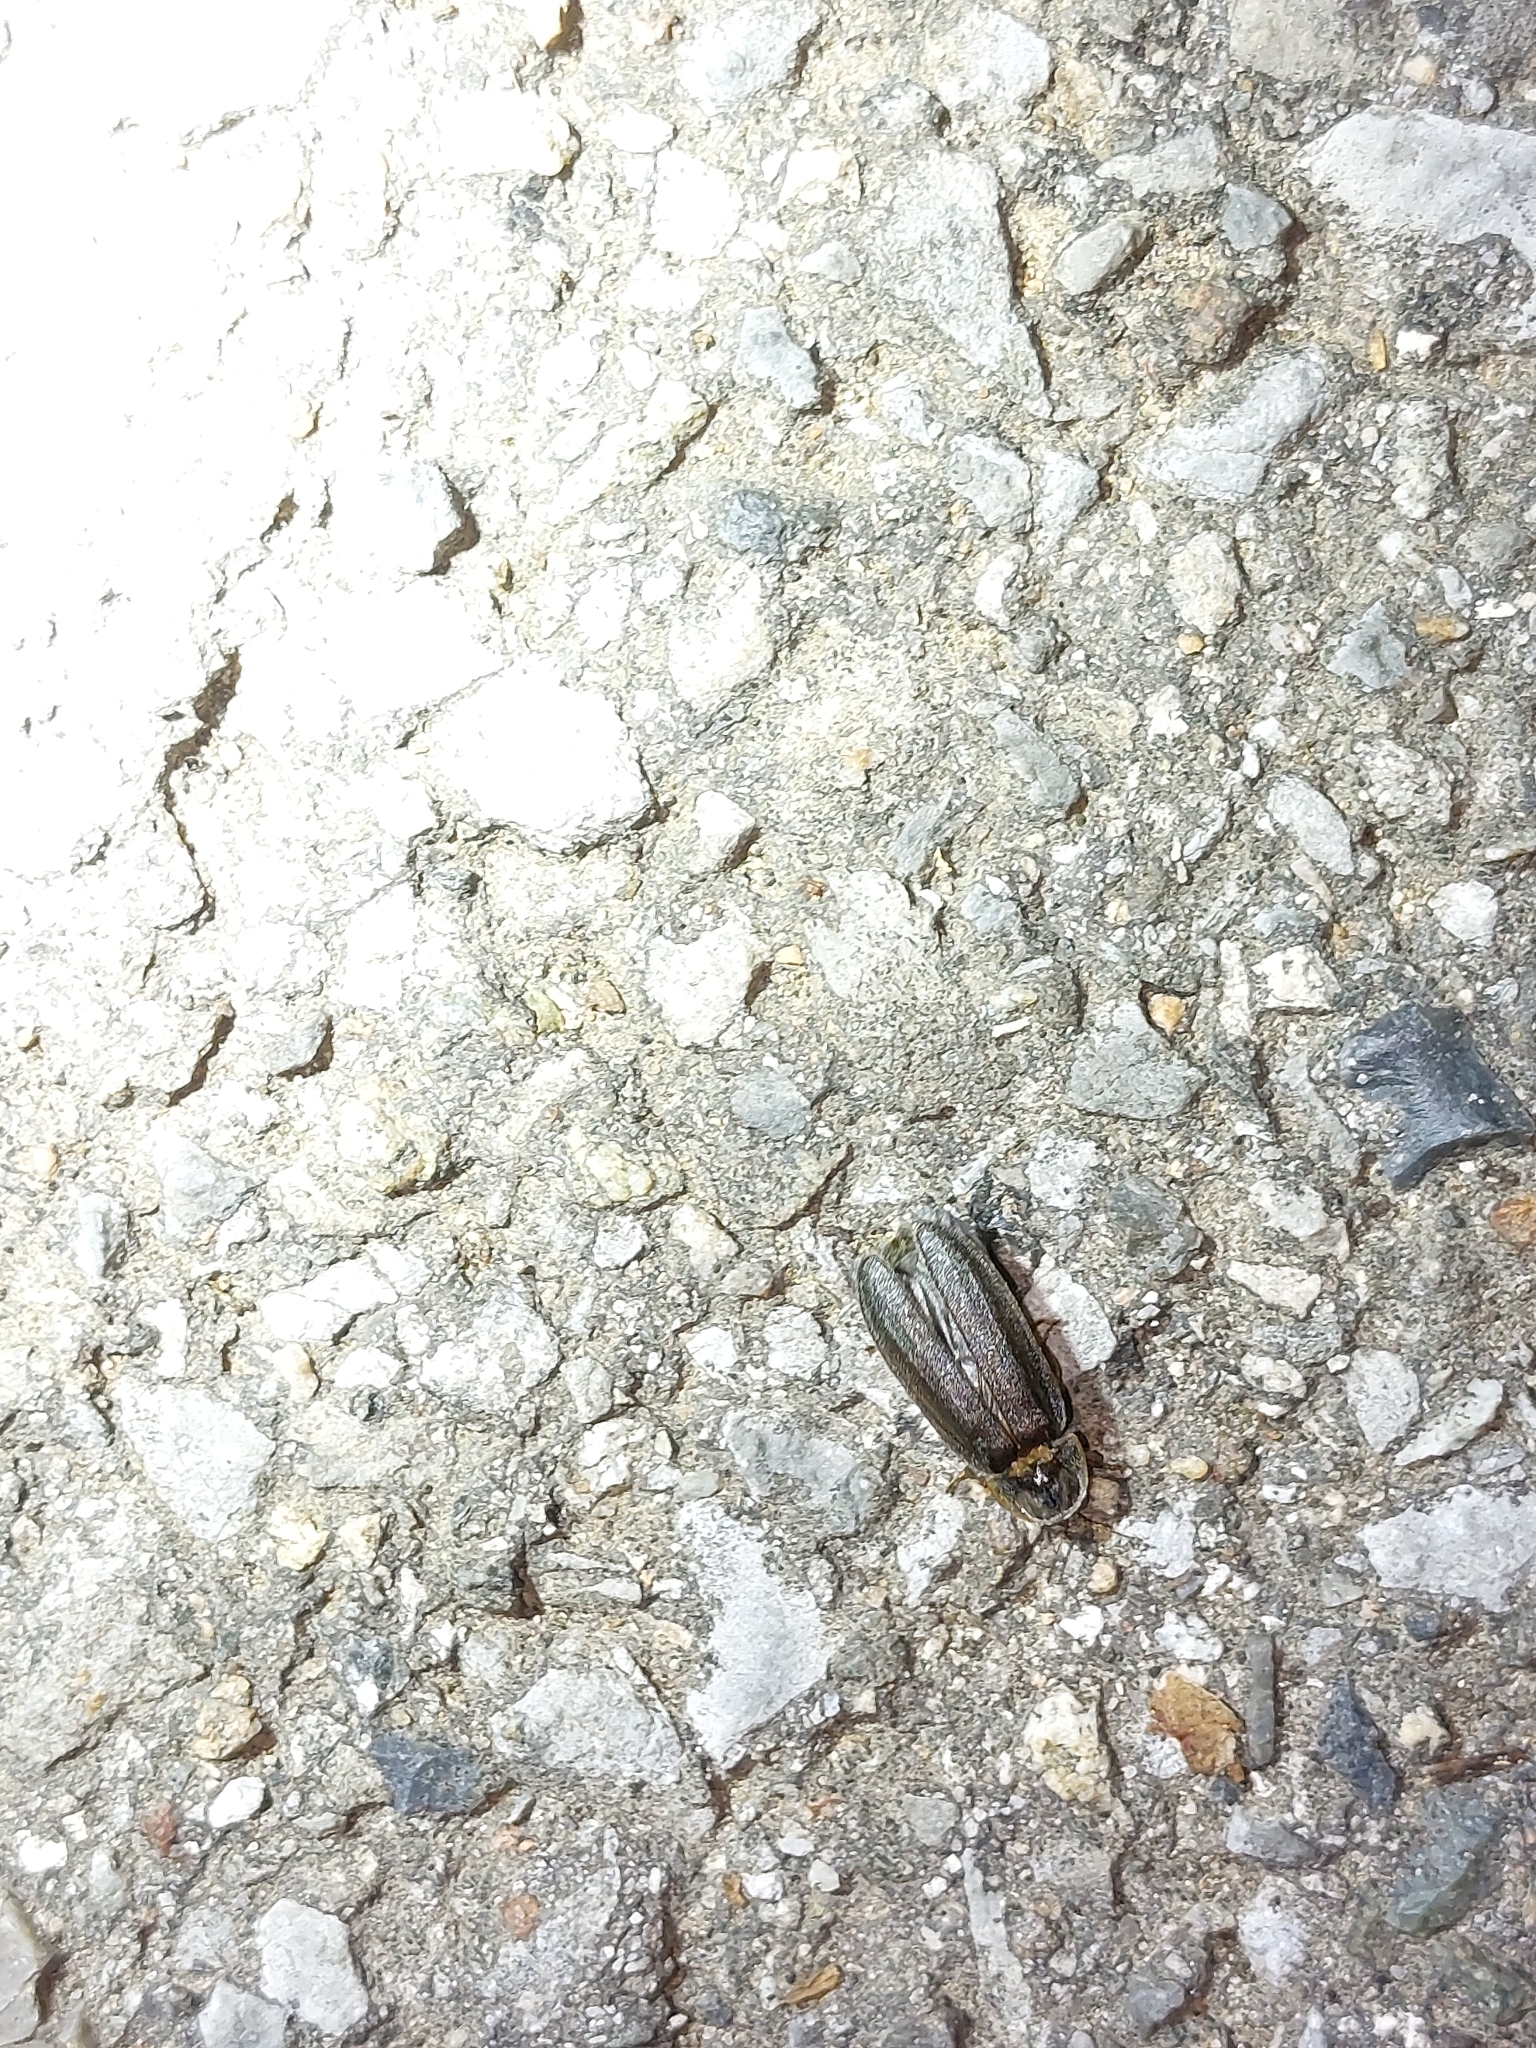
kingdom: Animalia
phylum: Arthropoda
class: Insecta
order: Coleoptera
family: Lampyridae
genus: Lamprohiza
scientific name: Lamprohiza splendidula
